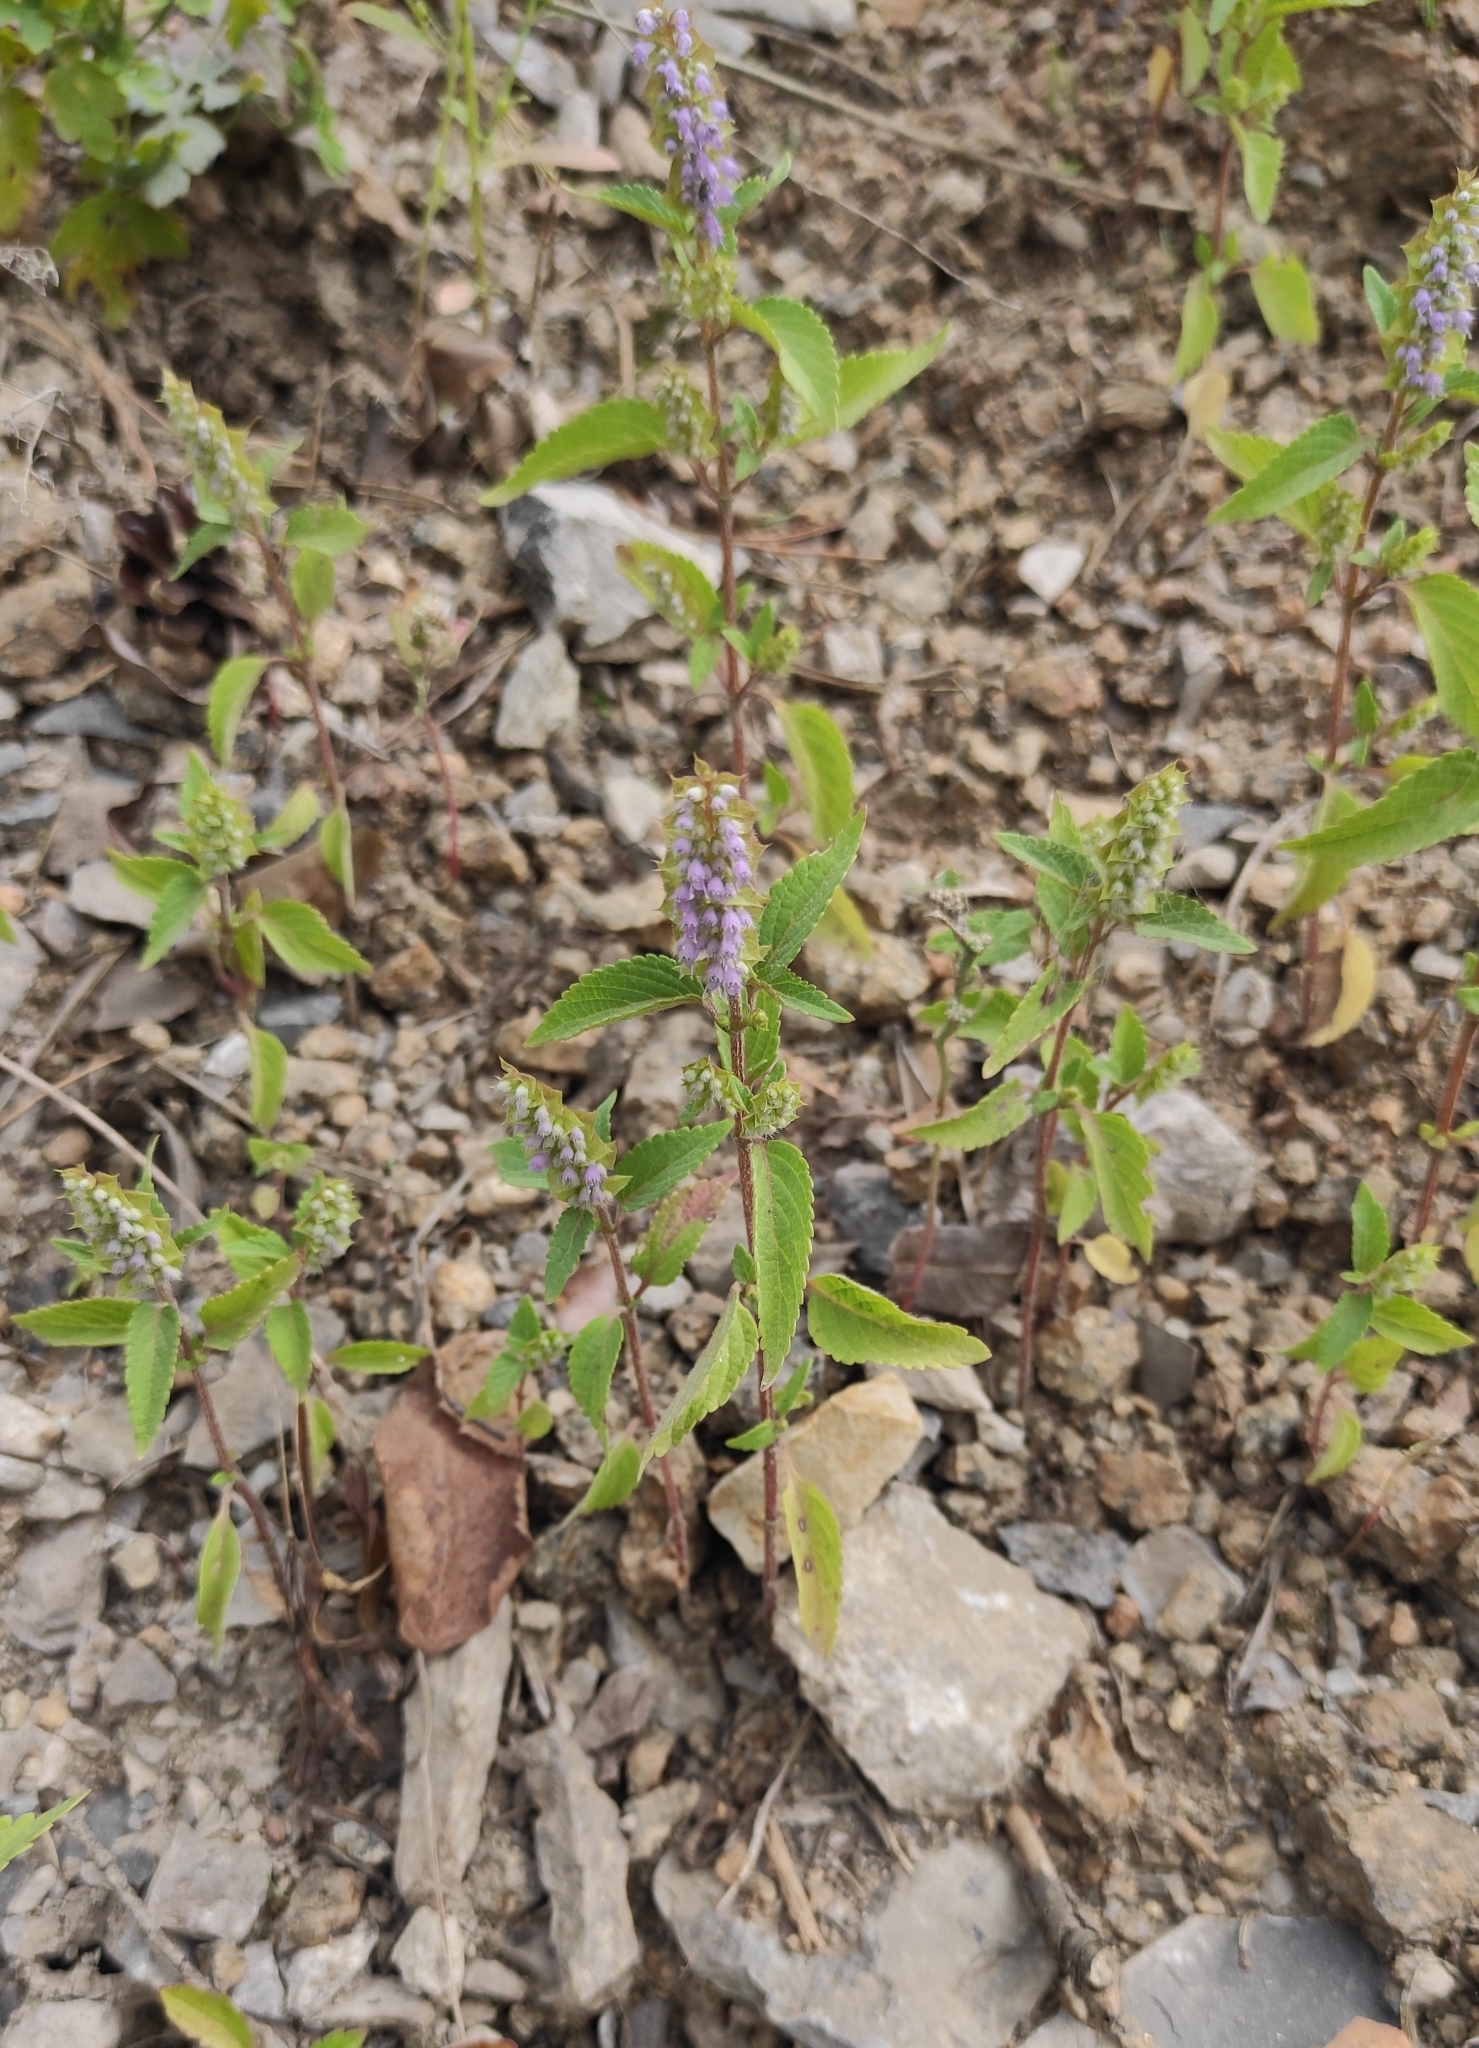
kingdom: Plantae
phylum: Tracheophyta
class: Magnoliopsida
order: Lamiales
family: Lamiaceae
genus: Elsholtzia
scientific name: Elsholtzia ciliata
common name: Ciliate elsholtzia
